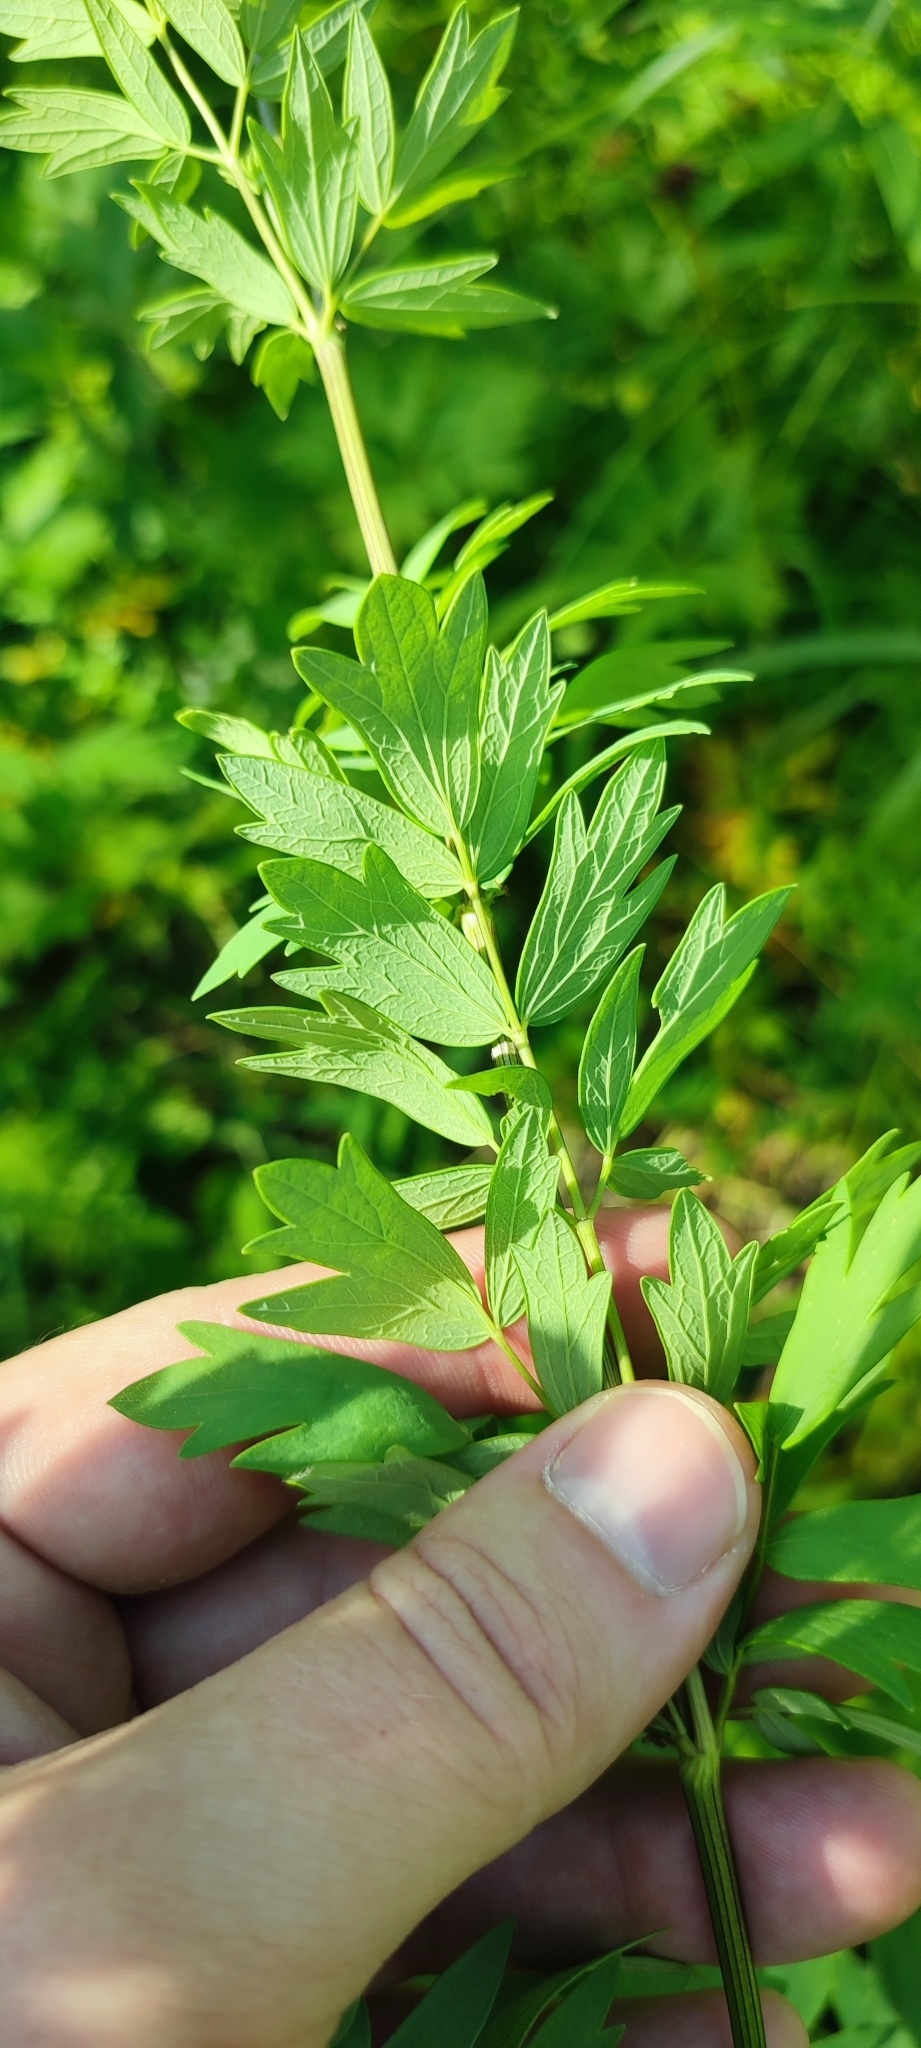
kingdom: Plantae
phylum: Tracheophyta
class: Magnoliopsida
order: Ranunculales
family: Ranunculaceae
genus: Thalictrum
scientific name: Thalictrum simplex
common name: Small meadow-rue
